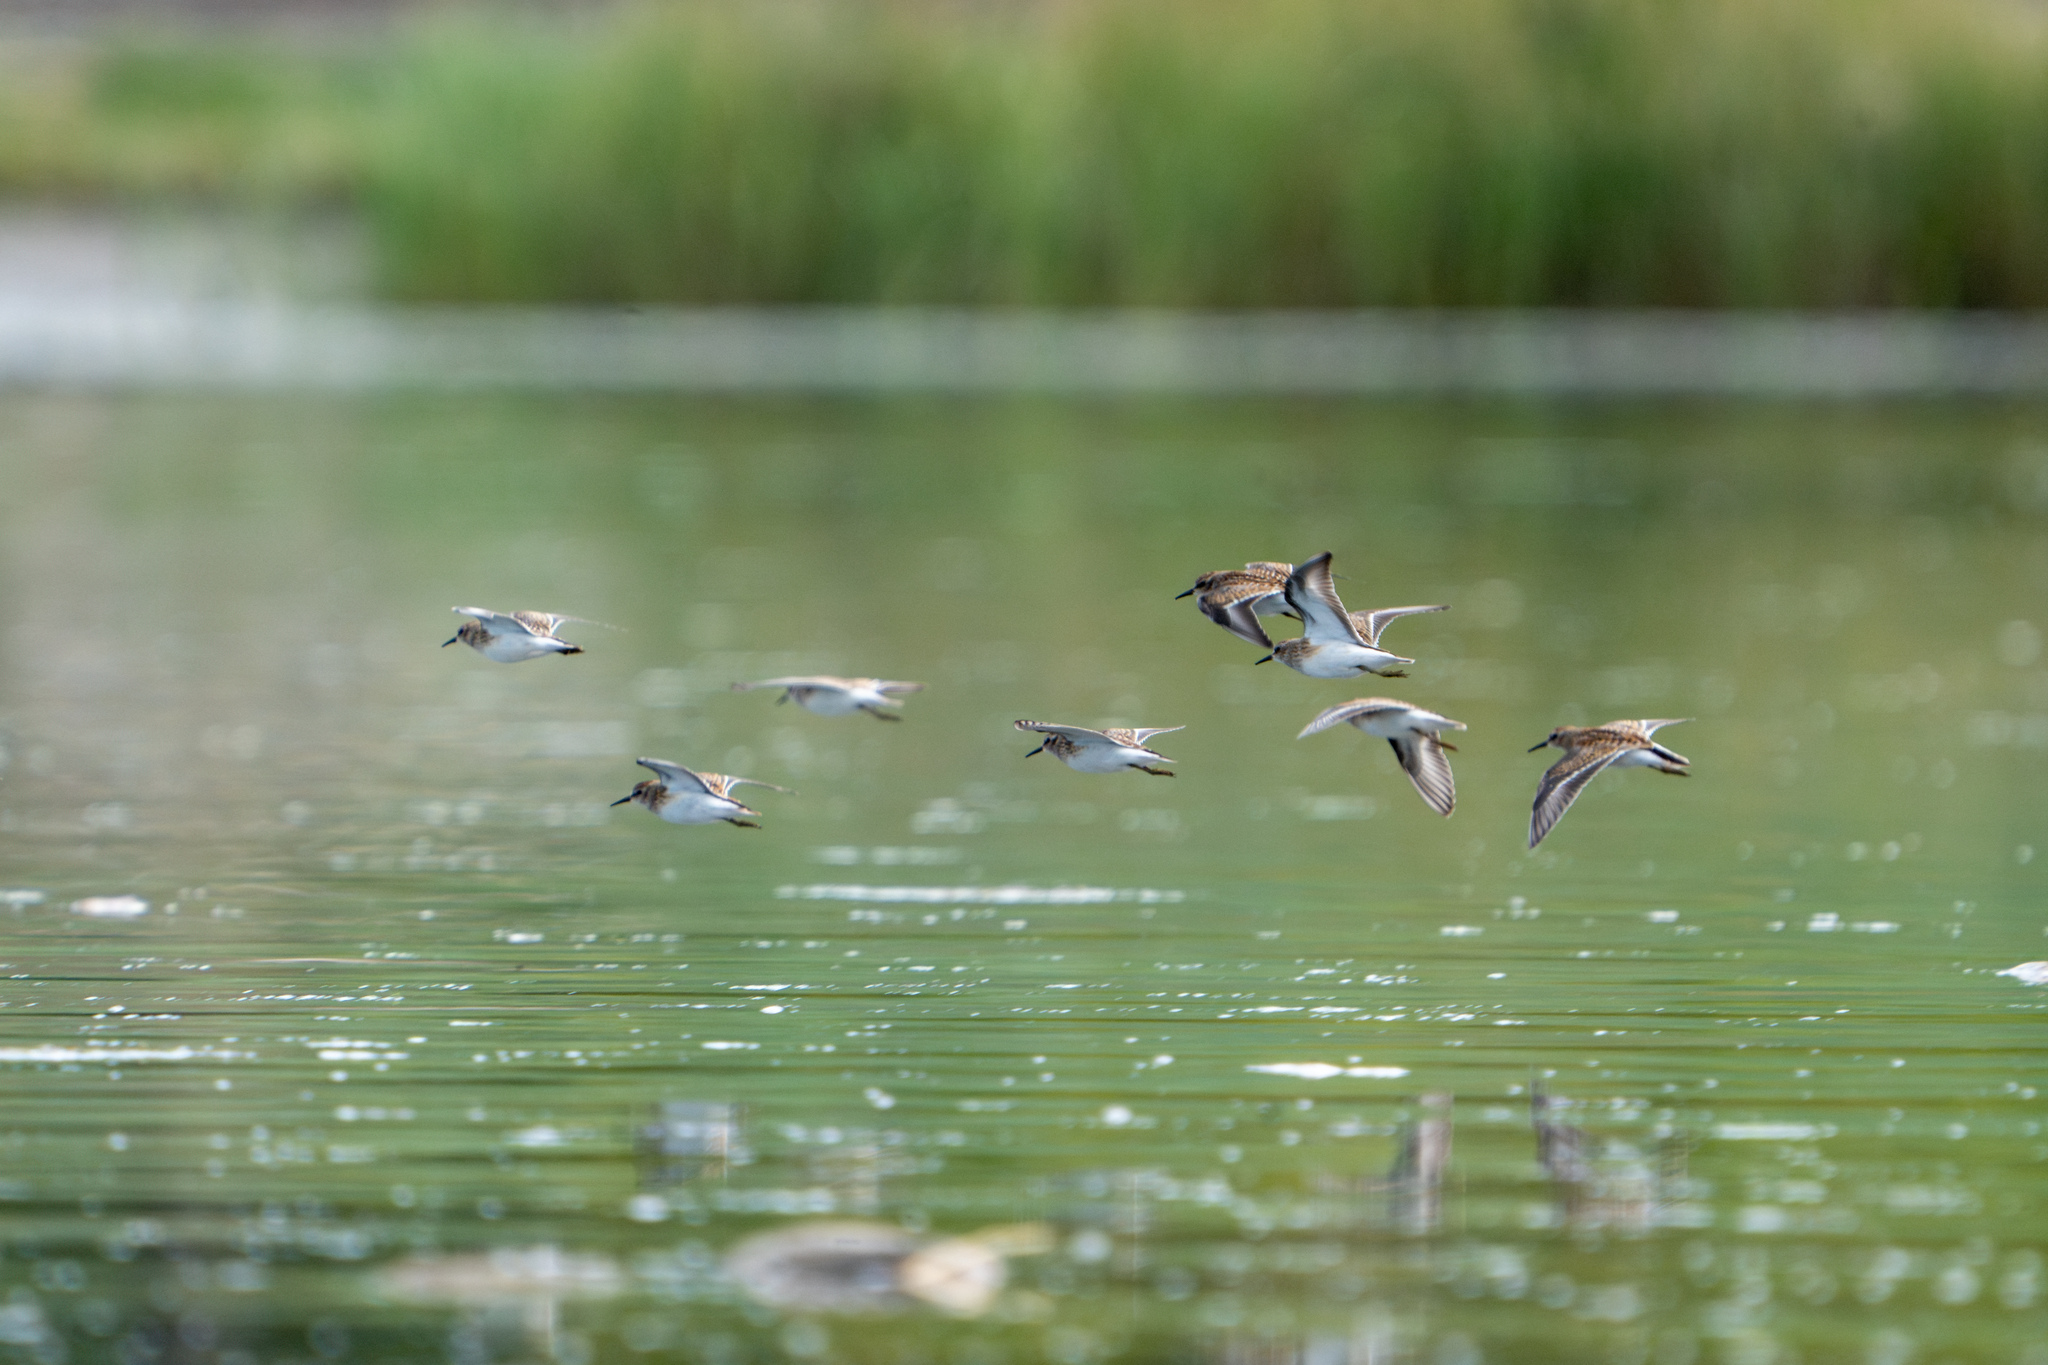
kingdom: Animalia
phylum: Chordata
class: Aves
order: Charadriiformes
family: Scolopacidae
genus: Calidris
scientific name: Calidris minutilla
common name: Least sandpiper
